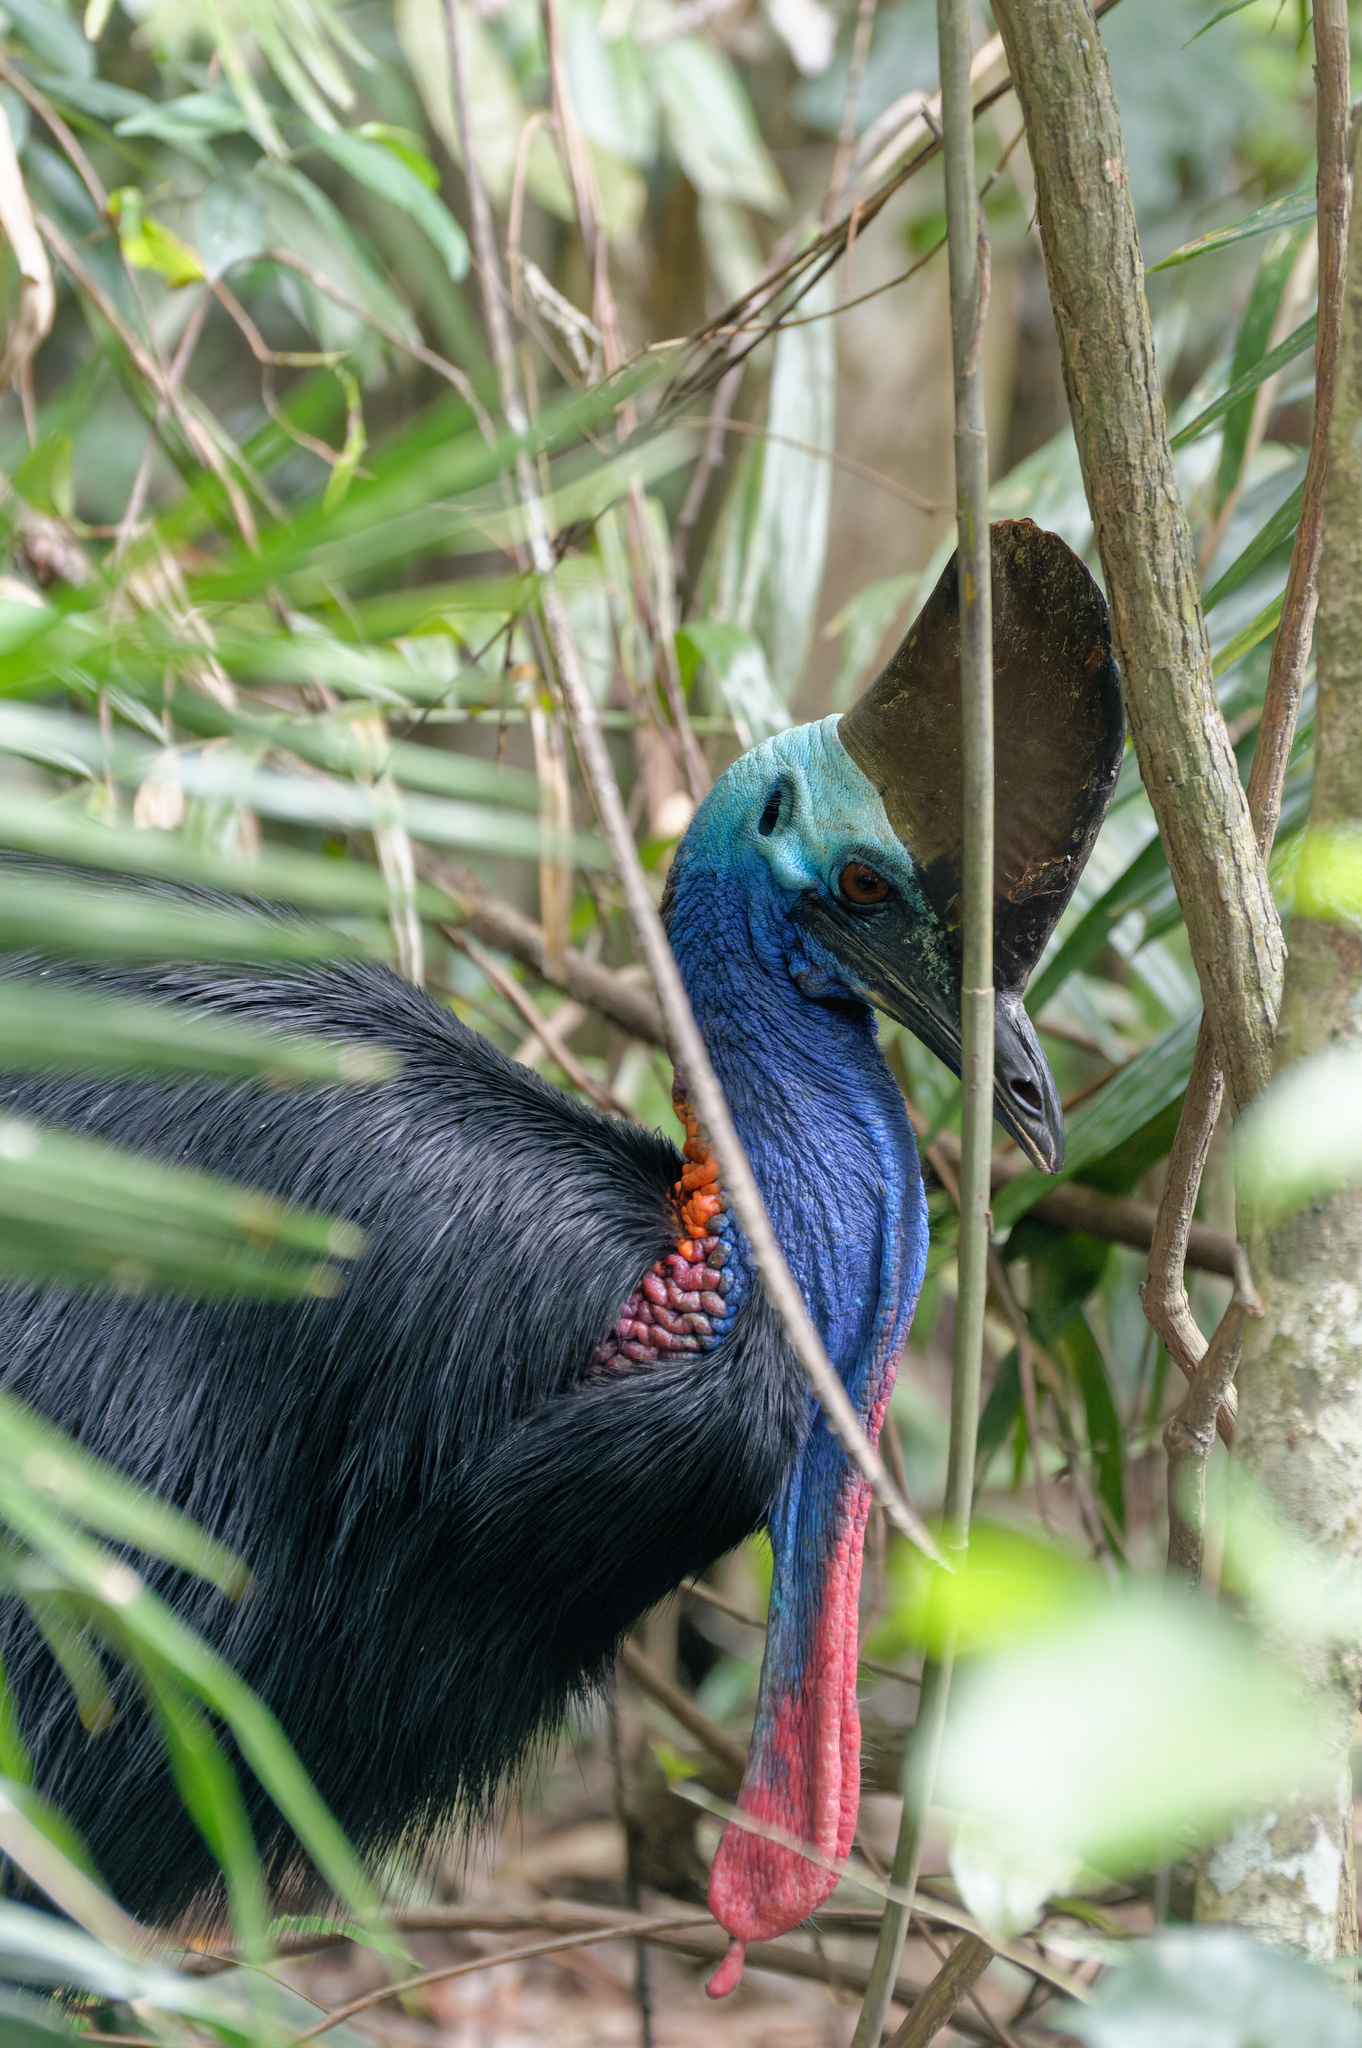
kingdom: Animalia
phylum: Chordata
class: Aves
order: Casuariiformes
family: Casuariidae
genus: Casuarius
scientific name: Casuarius casuarius
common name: Southern cassowary
